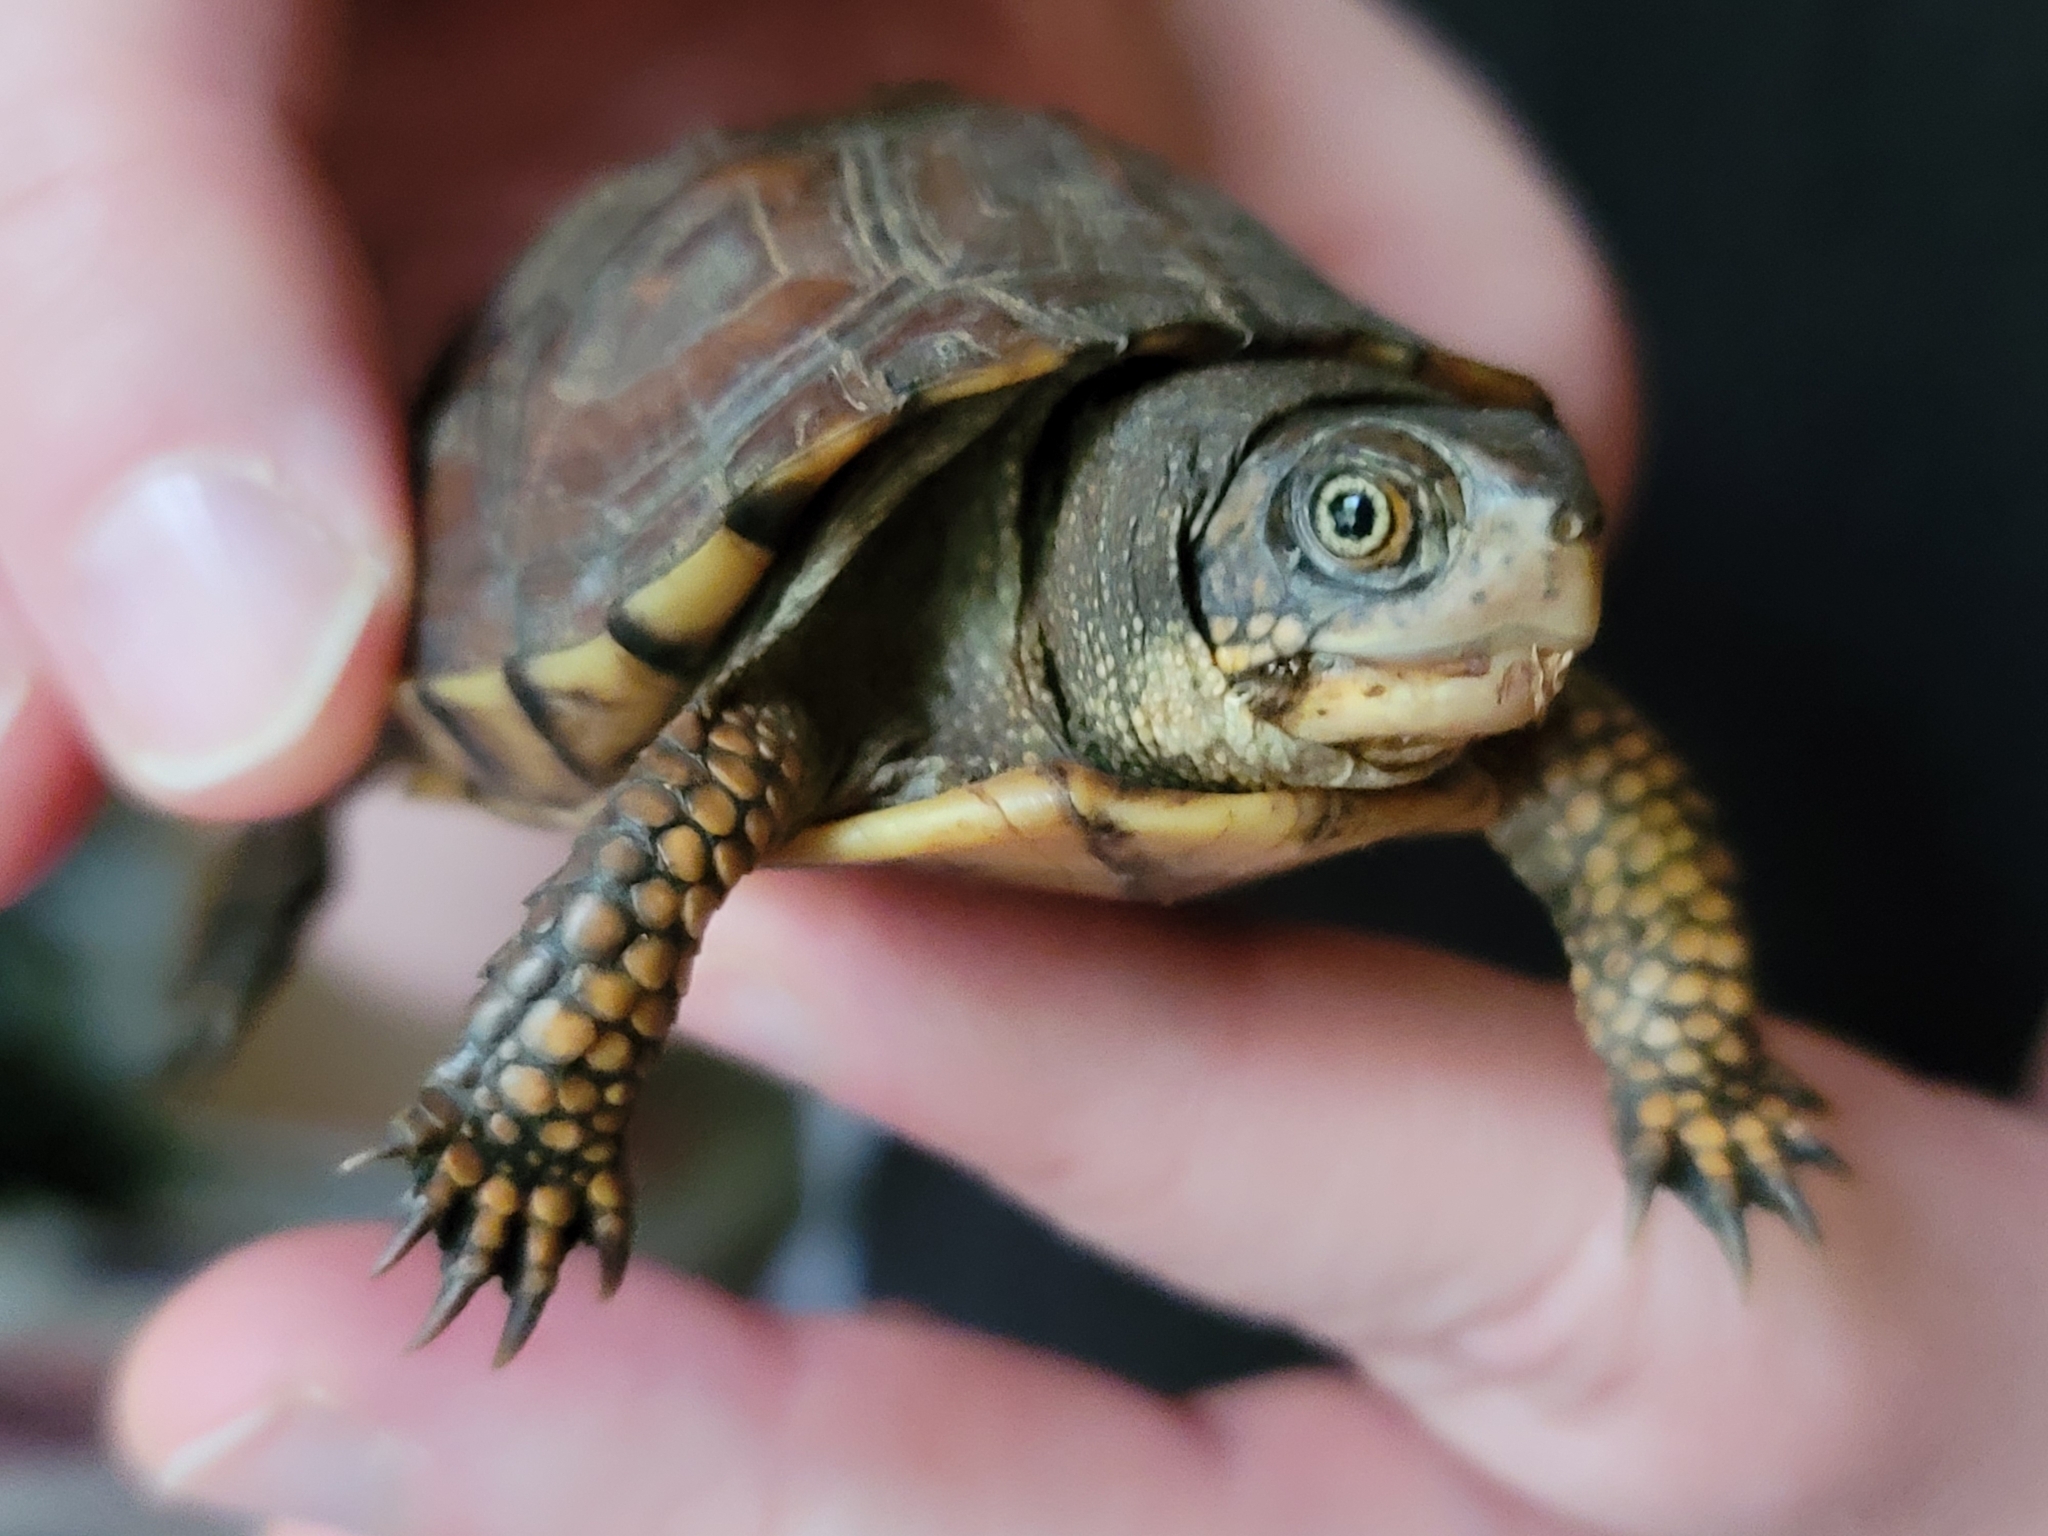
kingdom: Animalia
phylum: Chordata
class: Testudines
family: Emydidae
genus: Terrapene
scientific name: Terrapene carolina
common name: Common box turtle
